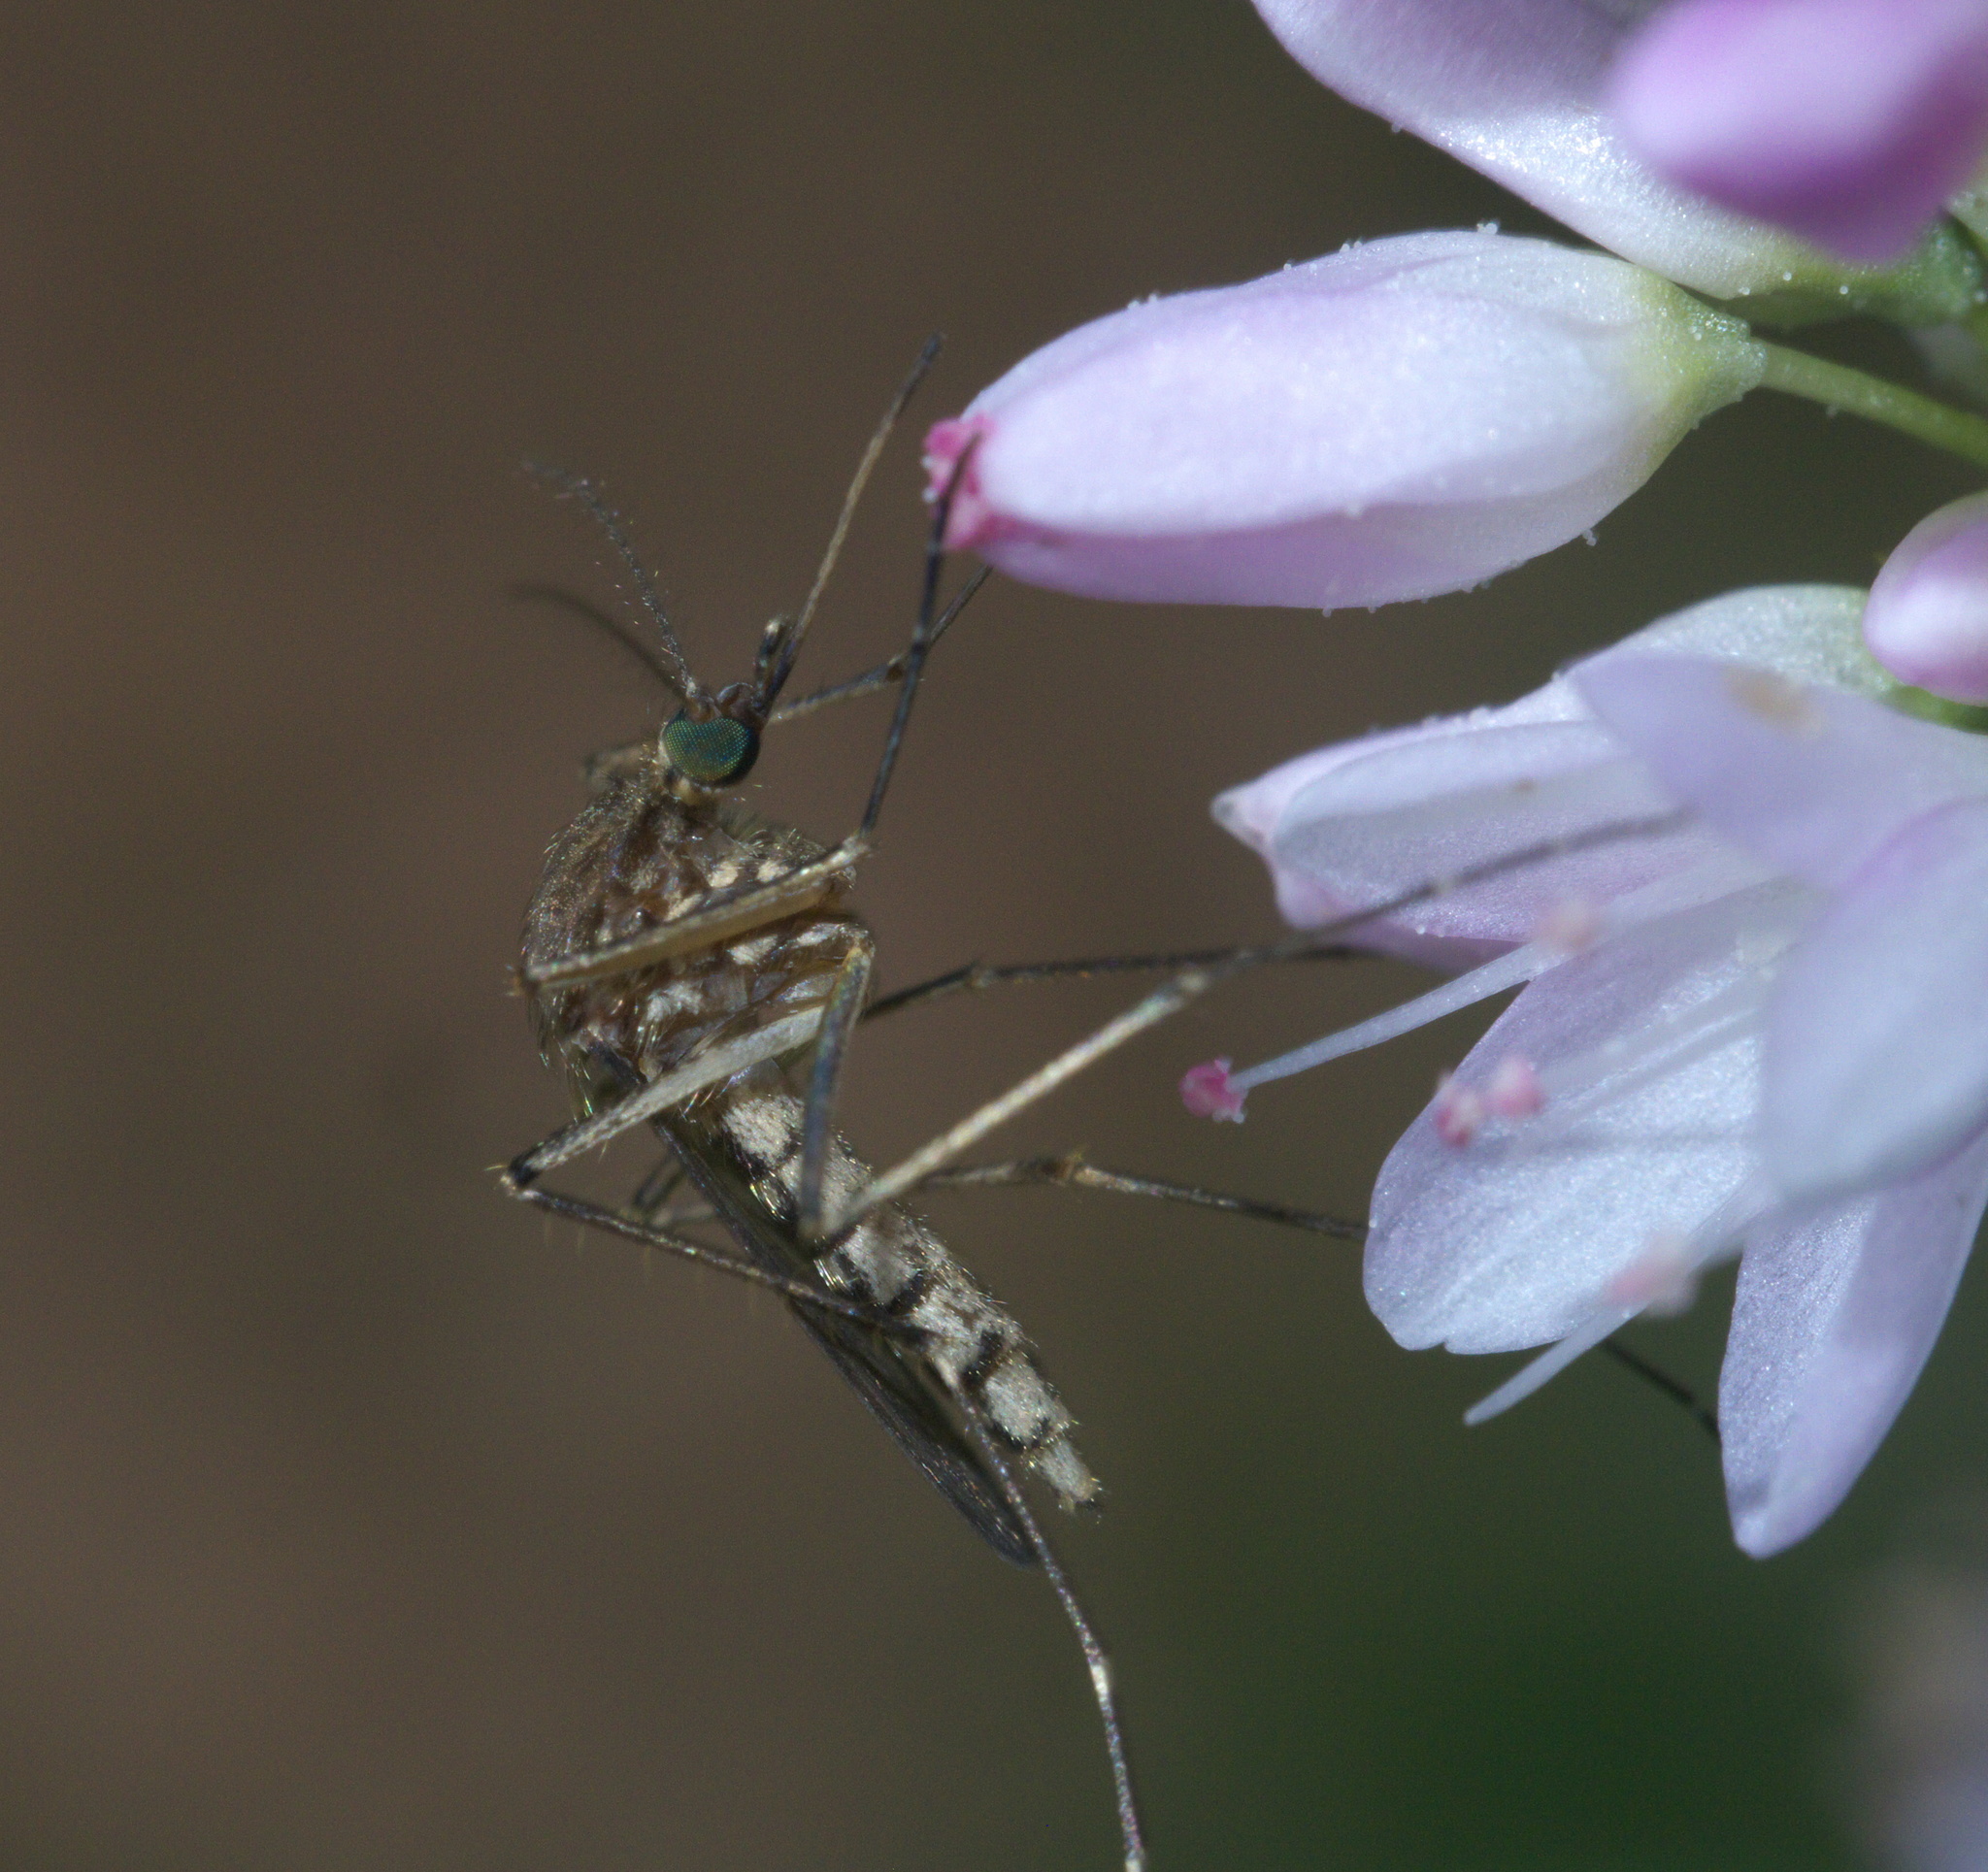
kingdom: Animalia
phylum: Arthropoda
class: Insecta
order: Diptera
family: Culicidae
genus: Aedes
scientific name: Aedes vexans
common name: Inland floodwater mosquito
